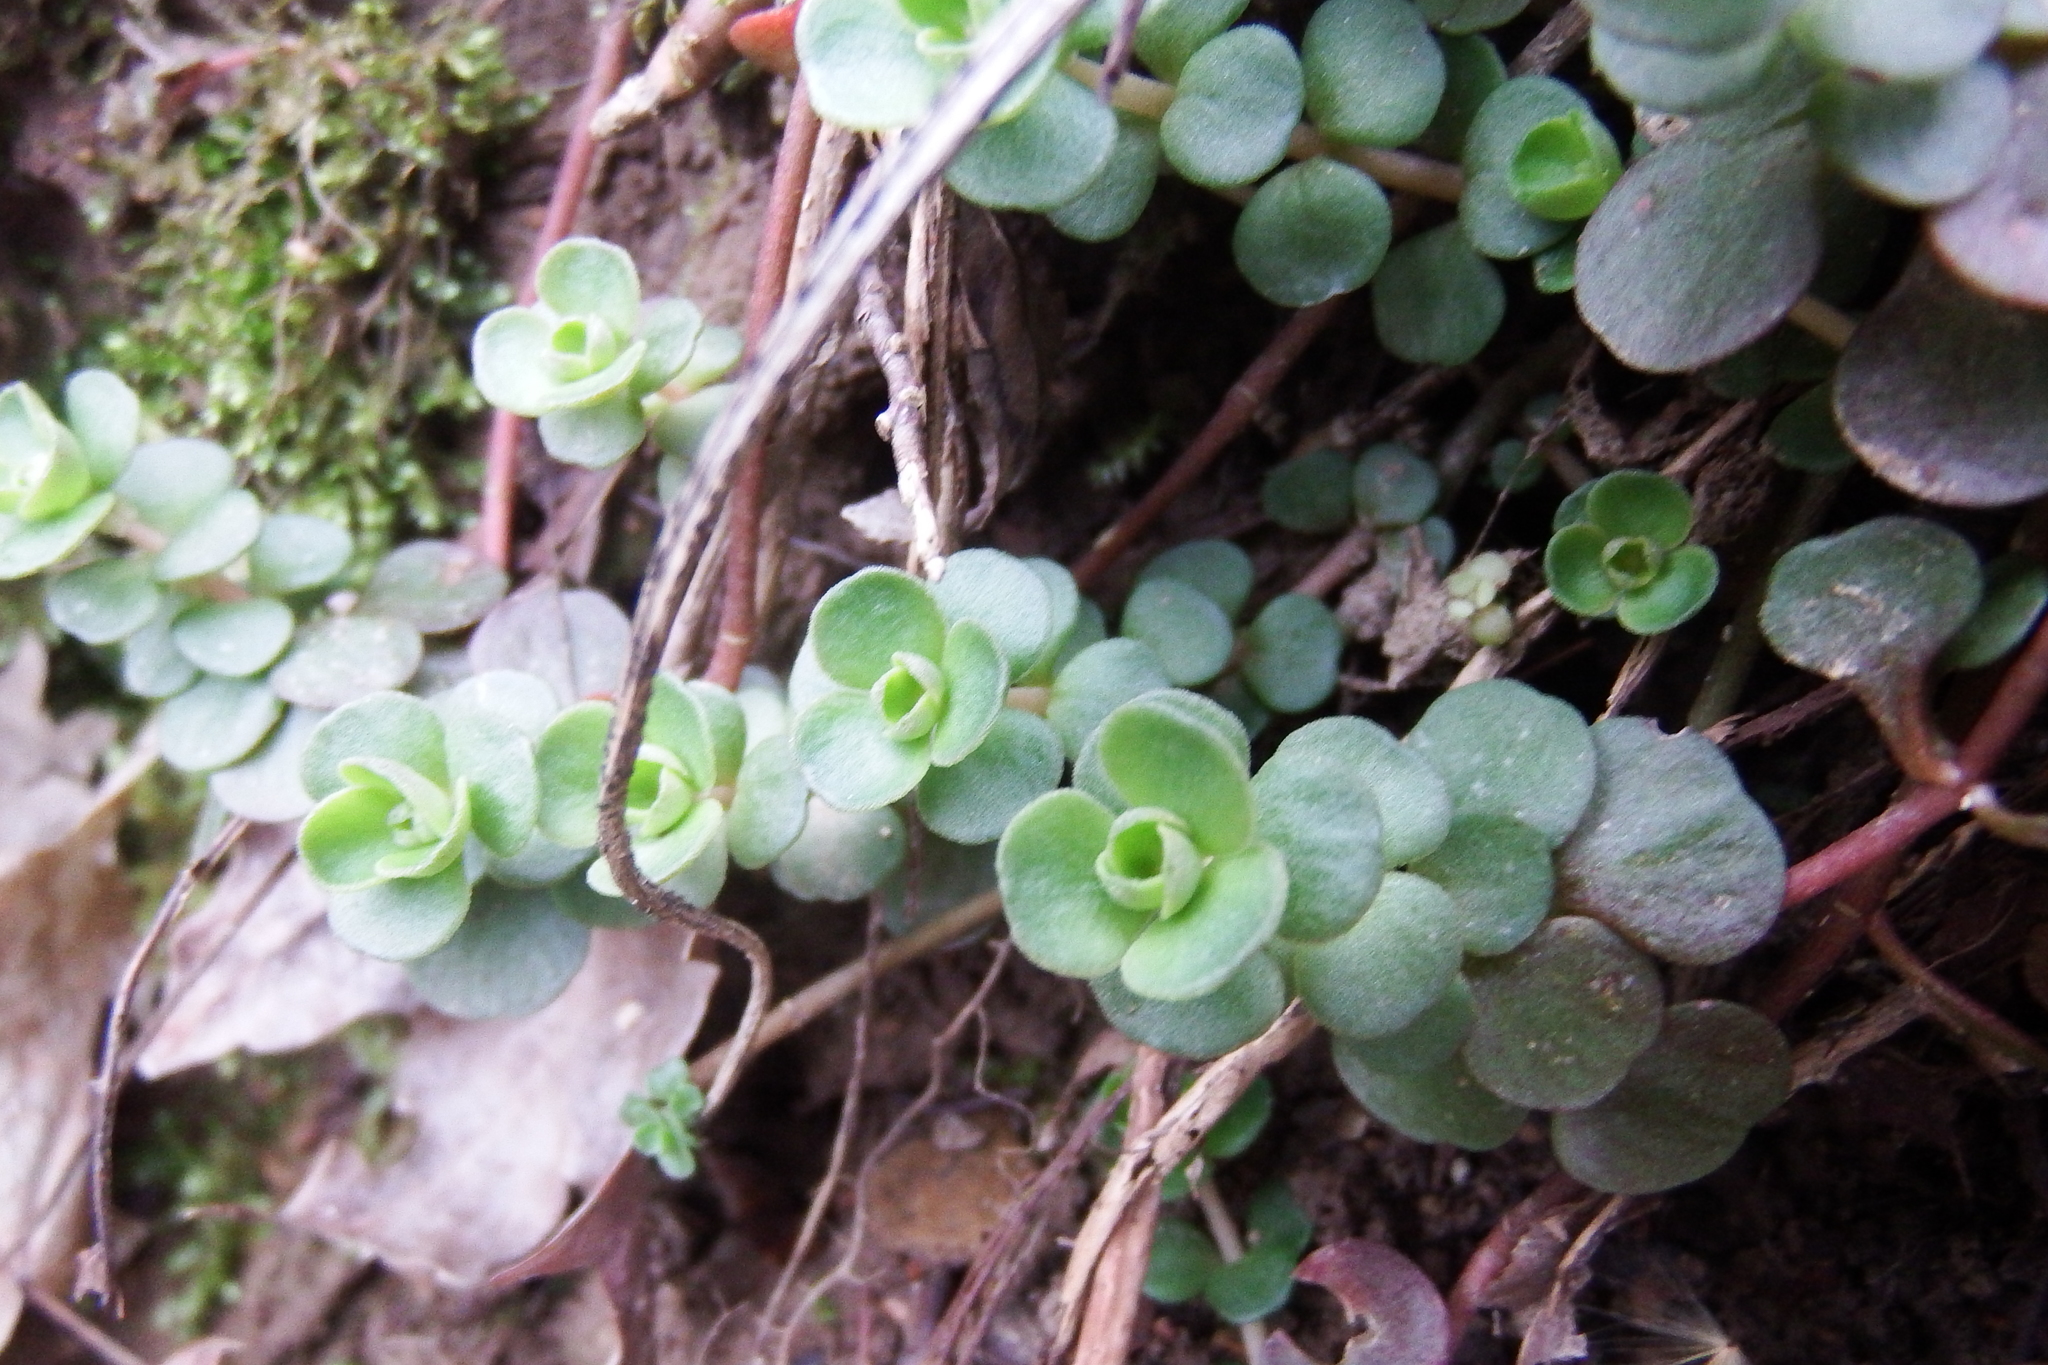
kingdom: Plantae
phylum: Tracheophyta
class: Magnoliopsida
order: Saxifragales
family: Crassulaceae
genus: Sedum
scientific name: Sedum ternatum
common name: Wild stonecrop
